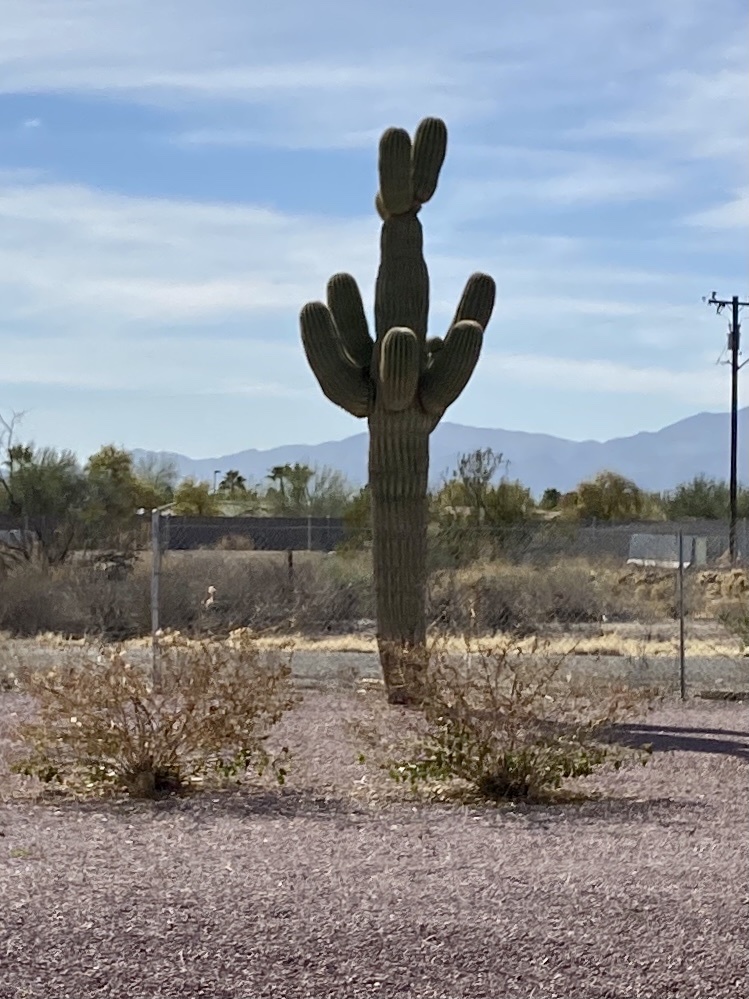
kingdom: Plantae
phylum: Tracheophyta
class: Magnoliopsida
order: Caryophyllales
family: Cactaceae
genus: Carnegiea
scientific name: Carnegiea gigantea
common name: Saguaro
